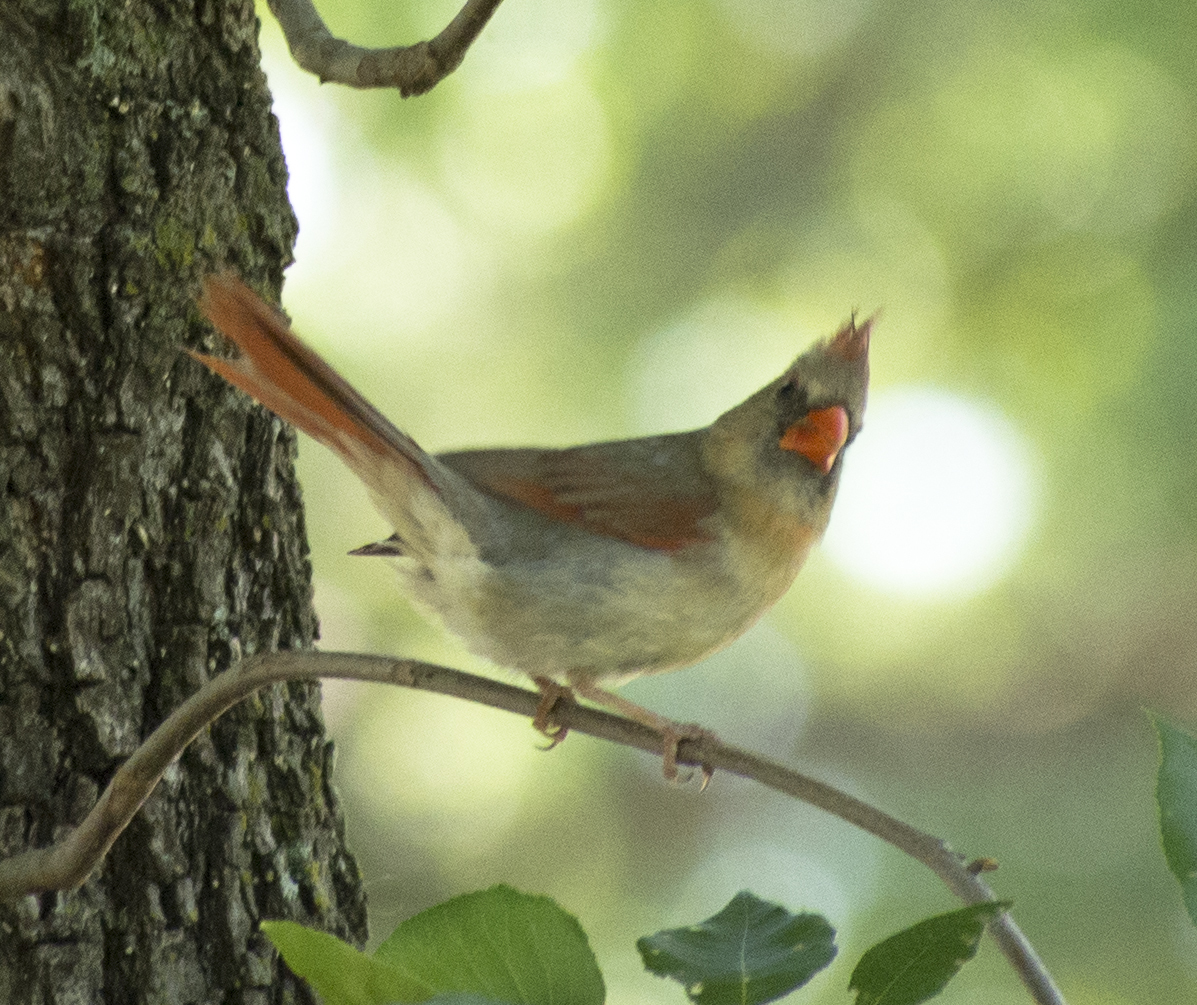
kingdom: Animalia
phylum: Chordata
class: Aves
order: Passeriformes
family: Cardinalidae
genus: Cardinalis
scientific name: Cardinalis cardinalis
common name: Northern cardinal
